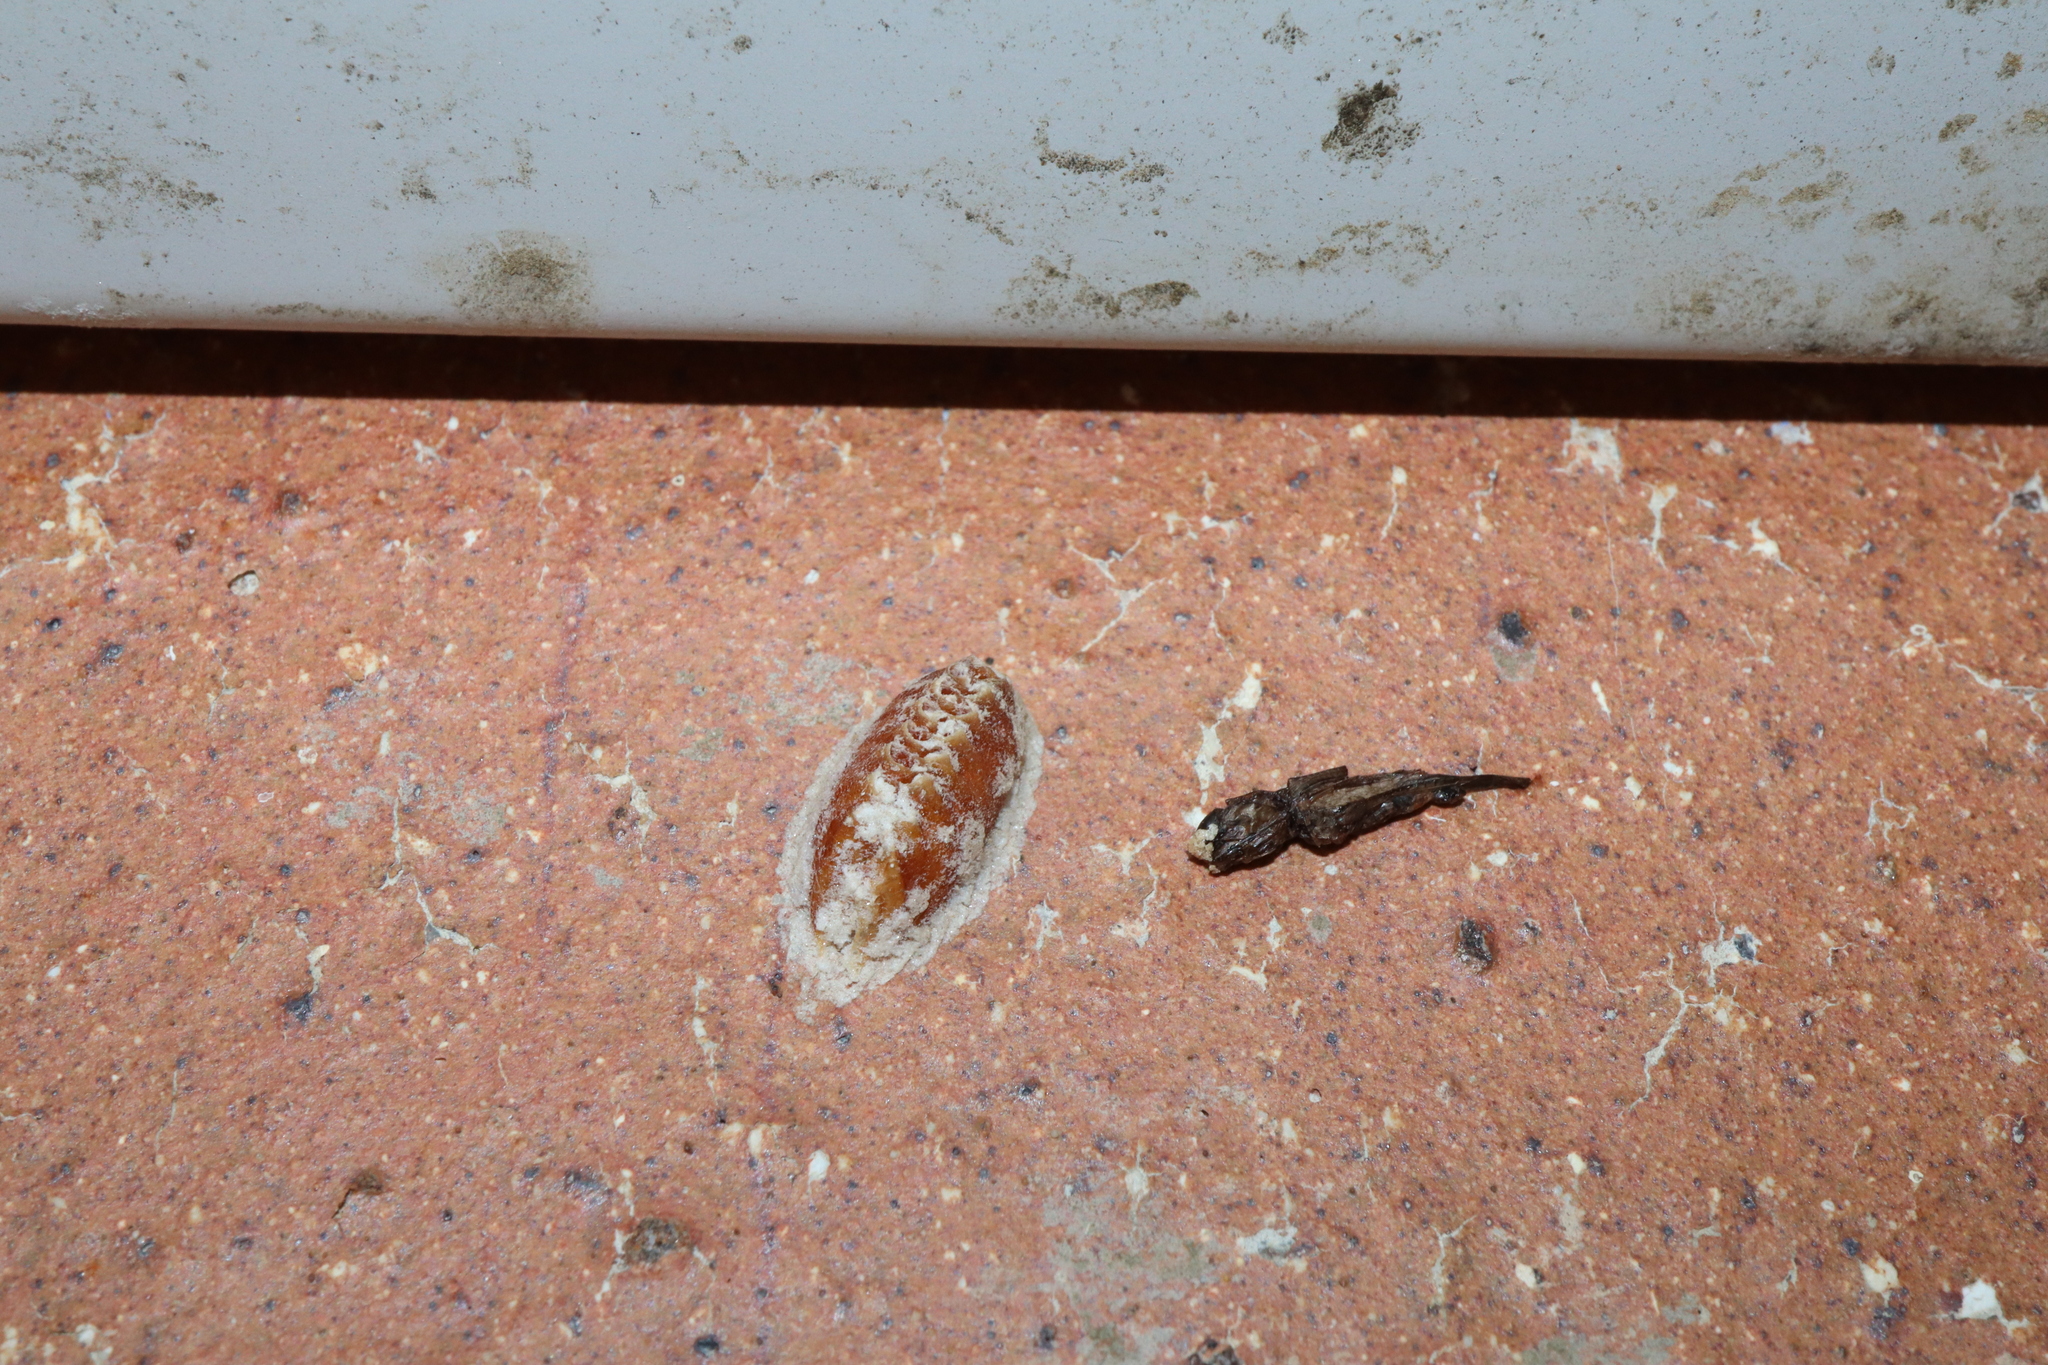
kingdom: Animalia
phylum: Arthropoda
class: Insecta
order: Mantodea
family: Mantidae
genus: Orthodera
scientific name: Orthodera ministralis
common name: Mantis
